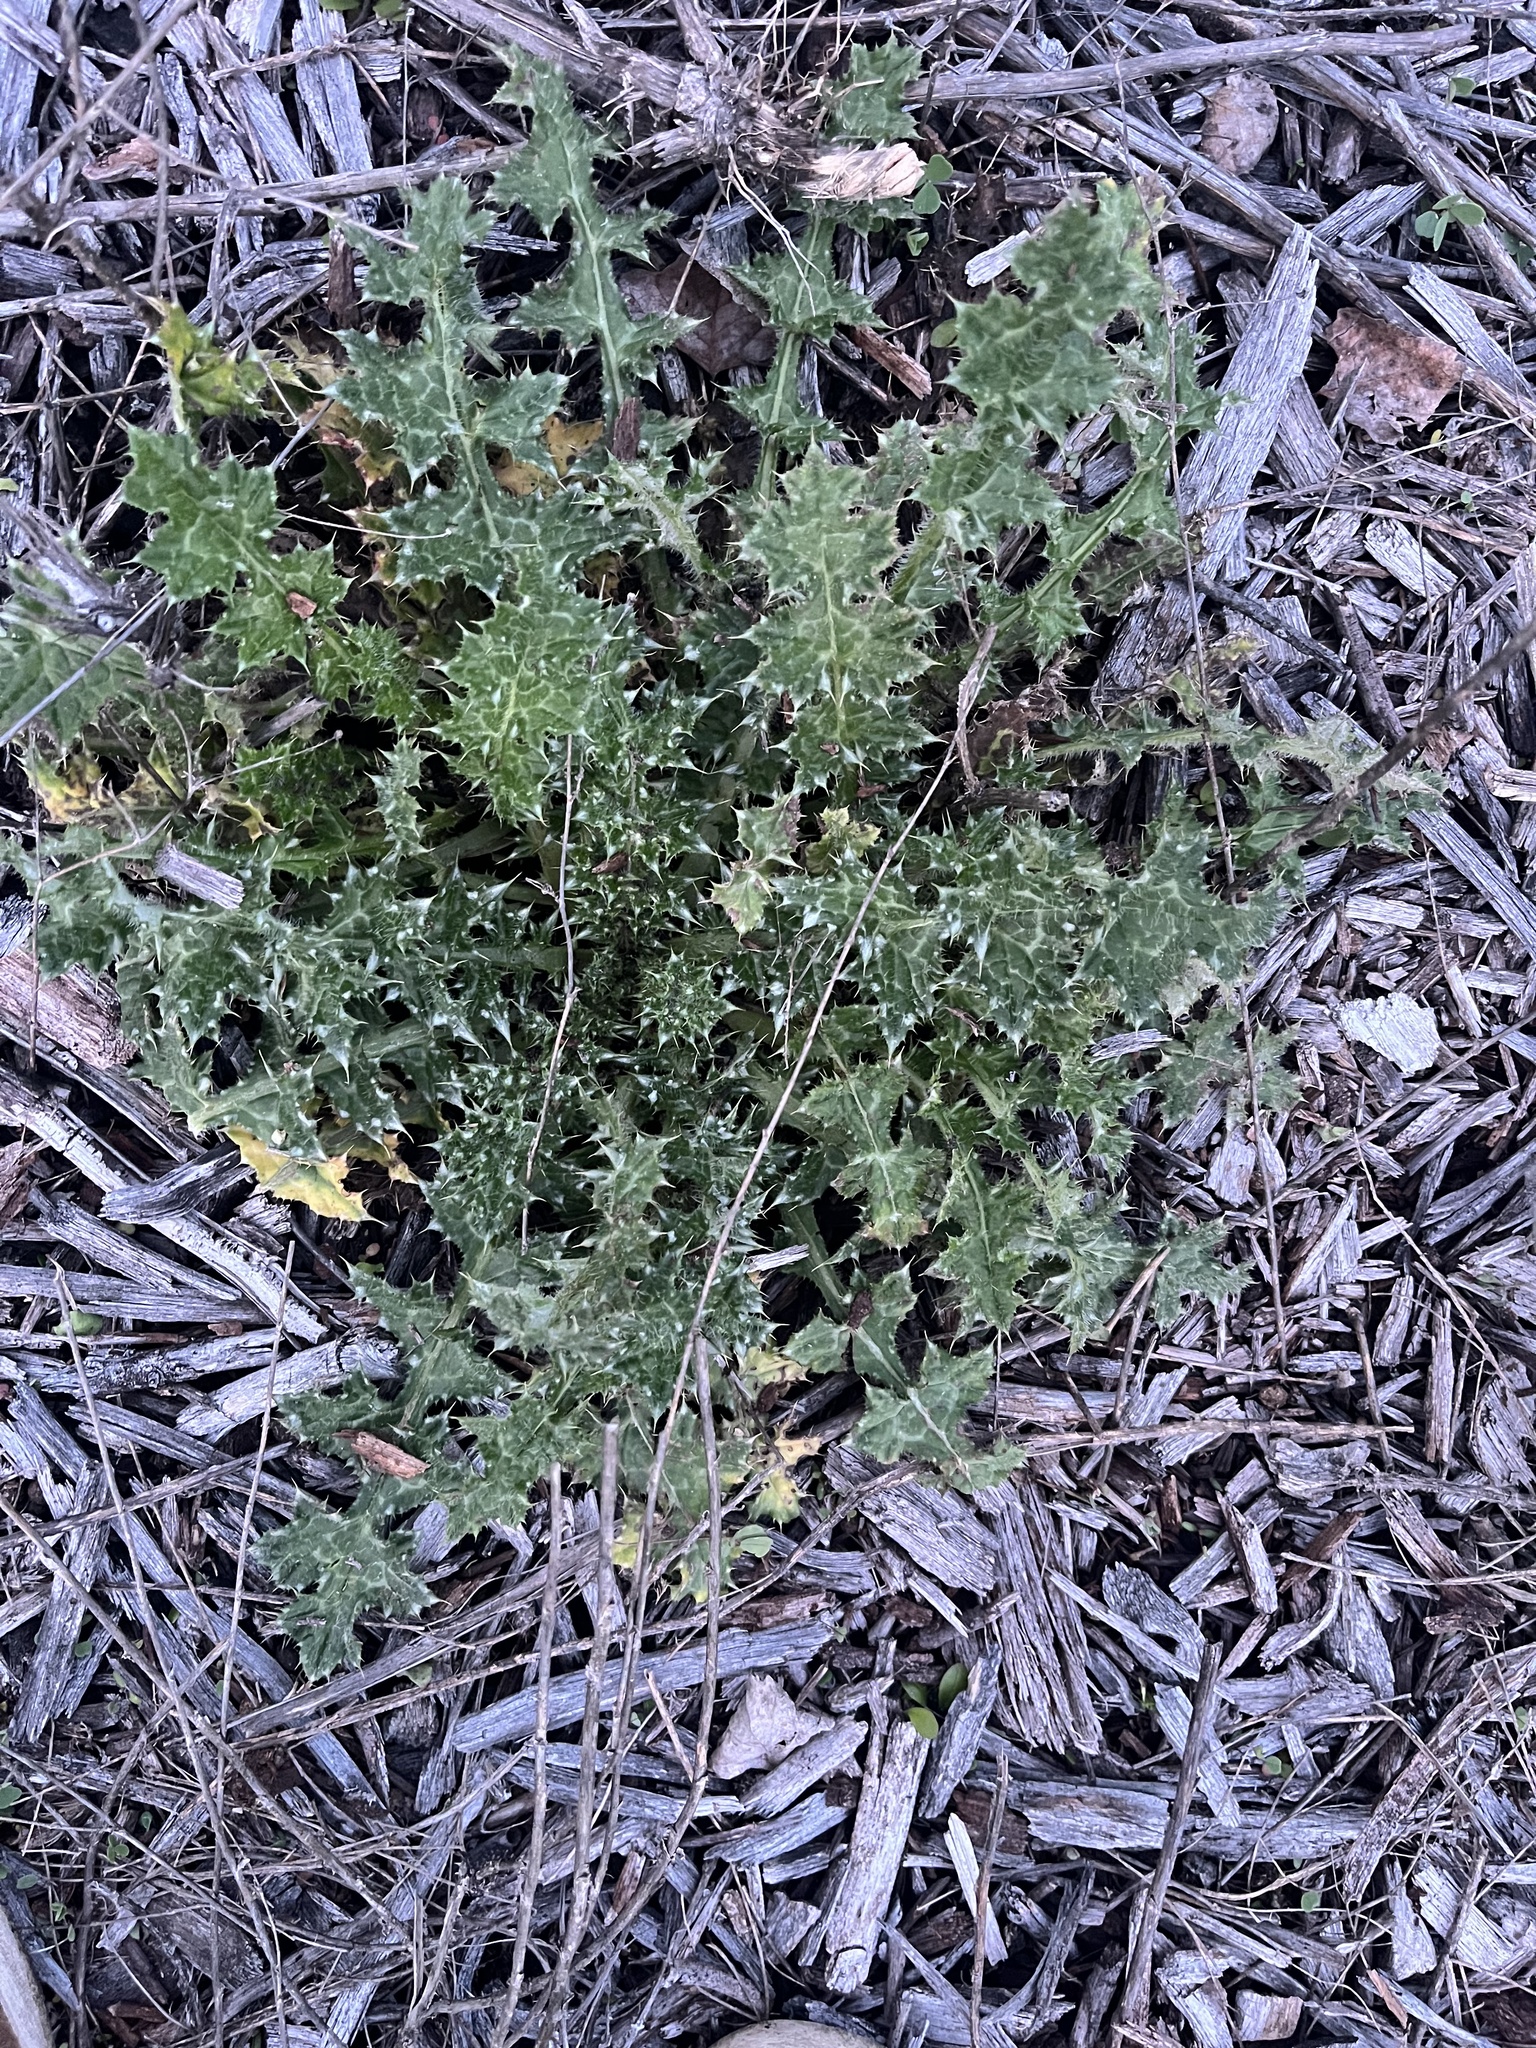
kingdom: Plantae
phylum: Tracheophyta
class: Magnoliopsida
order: Asterales
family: Asteraceae
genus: Carduus
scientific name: Carduus pycnocephalus
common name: Plymouth thistle
